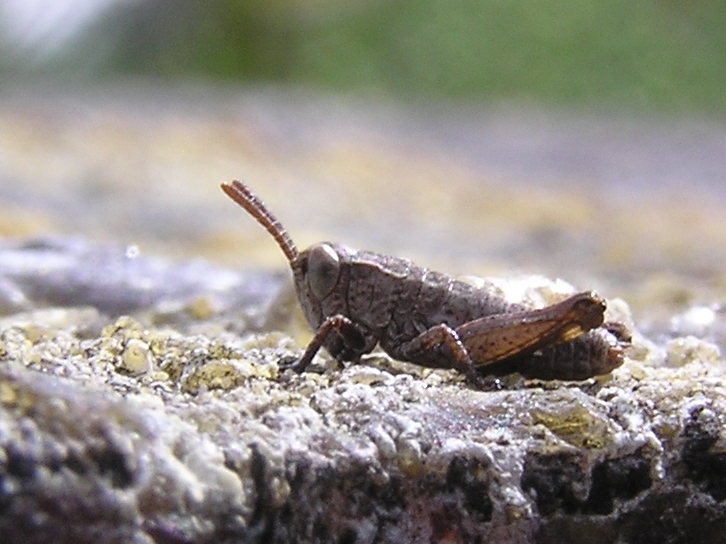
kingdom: Animalia
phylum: Arthropoda
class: Insecta
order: Orthoptera
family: Acrididae
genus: Phaulacridium
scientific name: Phaulacridium marginale
